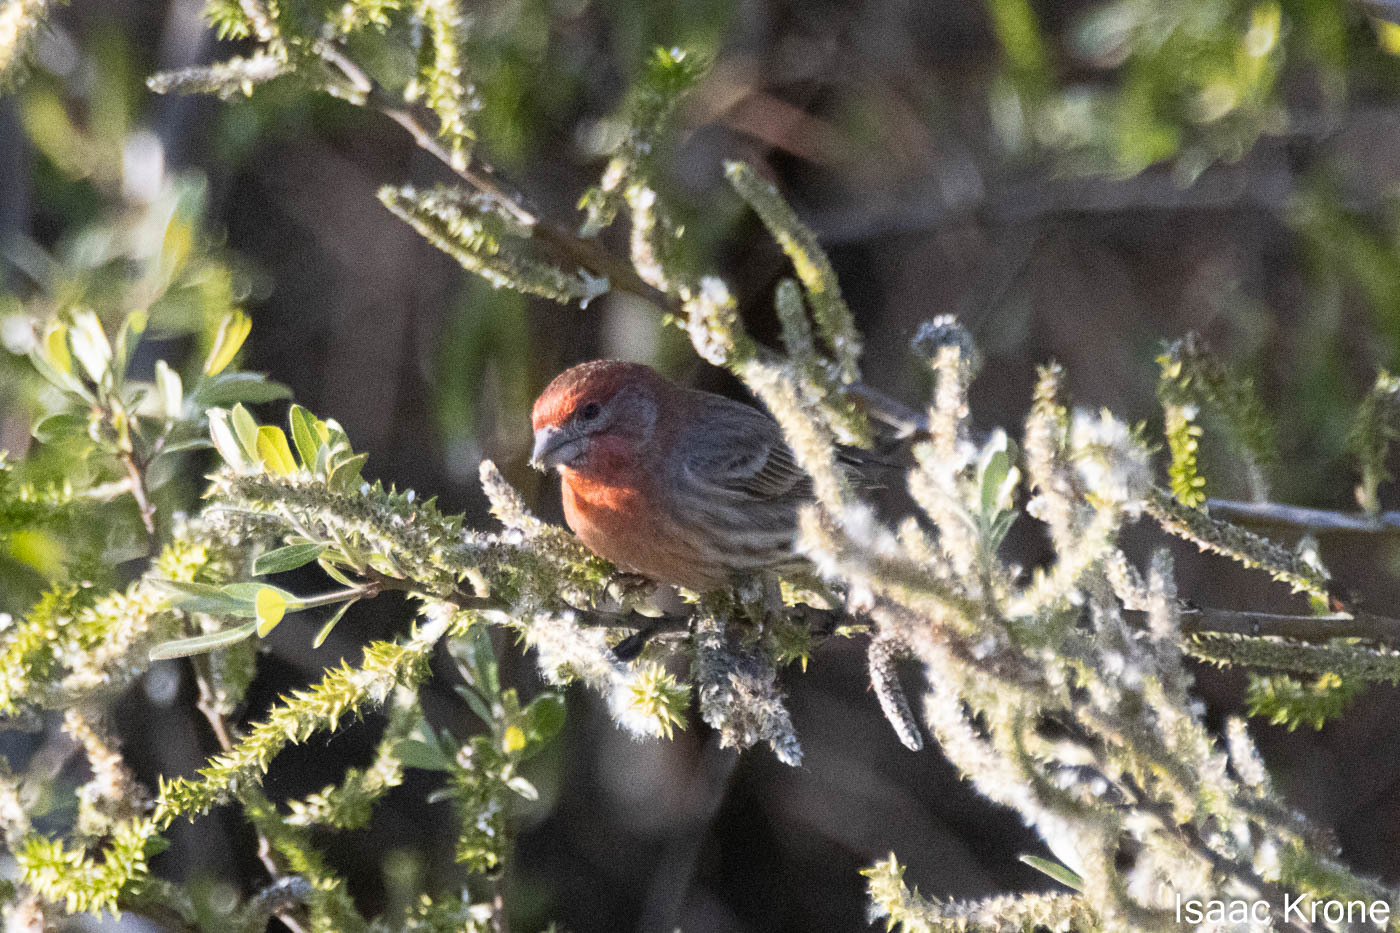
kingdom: Animalia
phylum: Chordata
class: Aves
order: Passeriformes
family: Fringillidae
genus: Haemorhous
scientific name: Haemorhous mexicanus
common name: House finch
